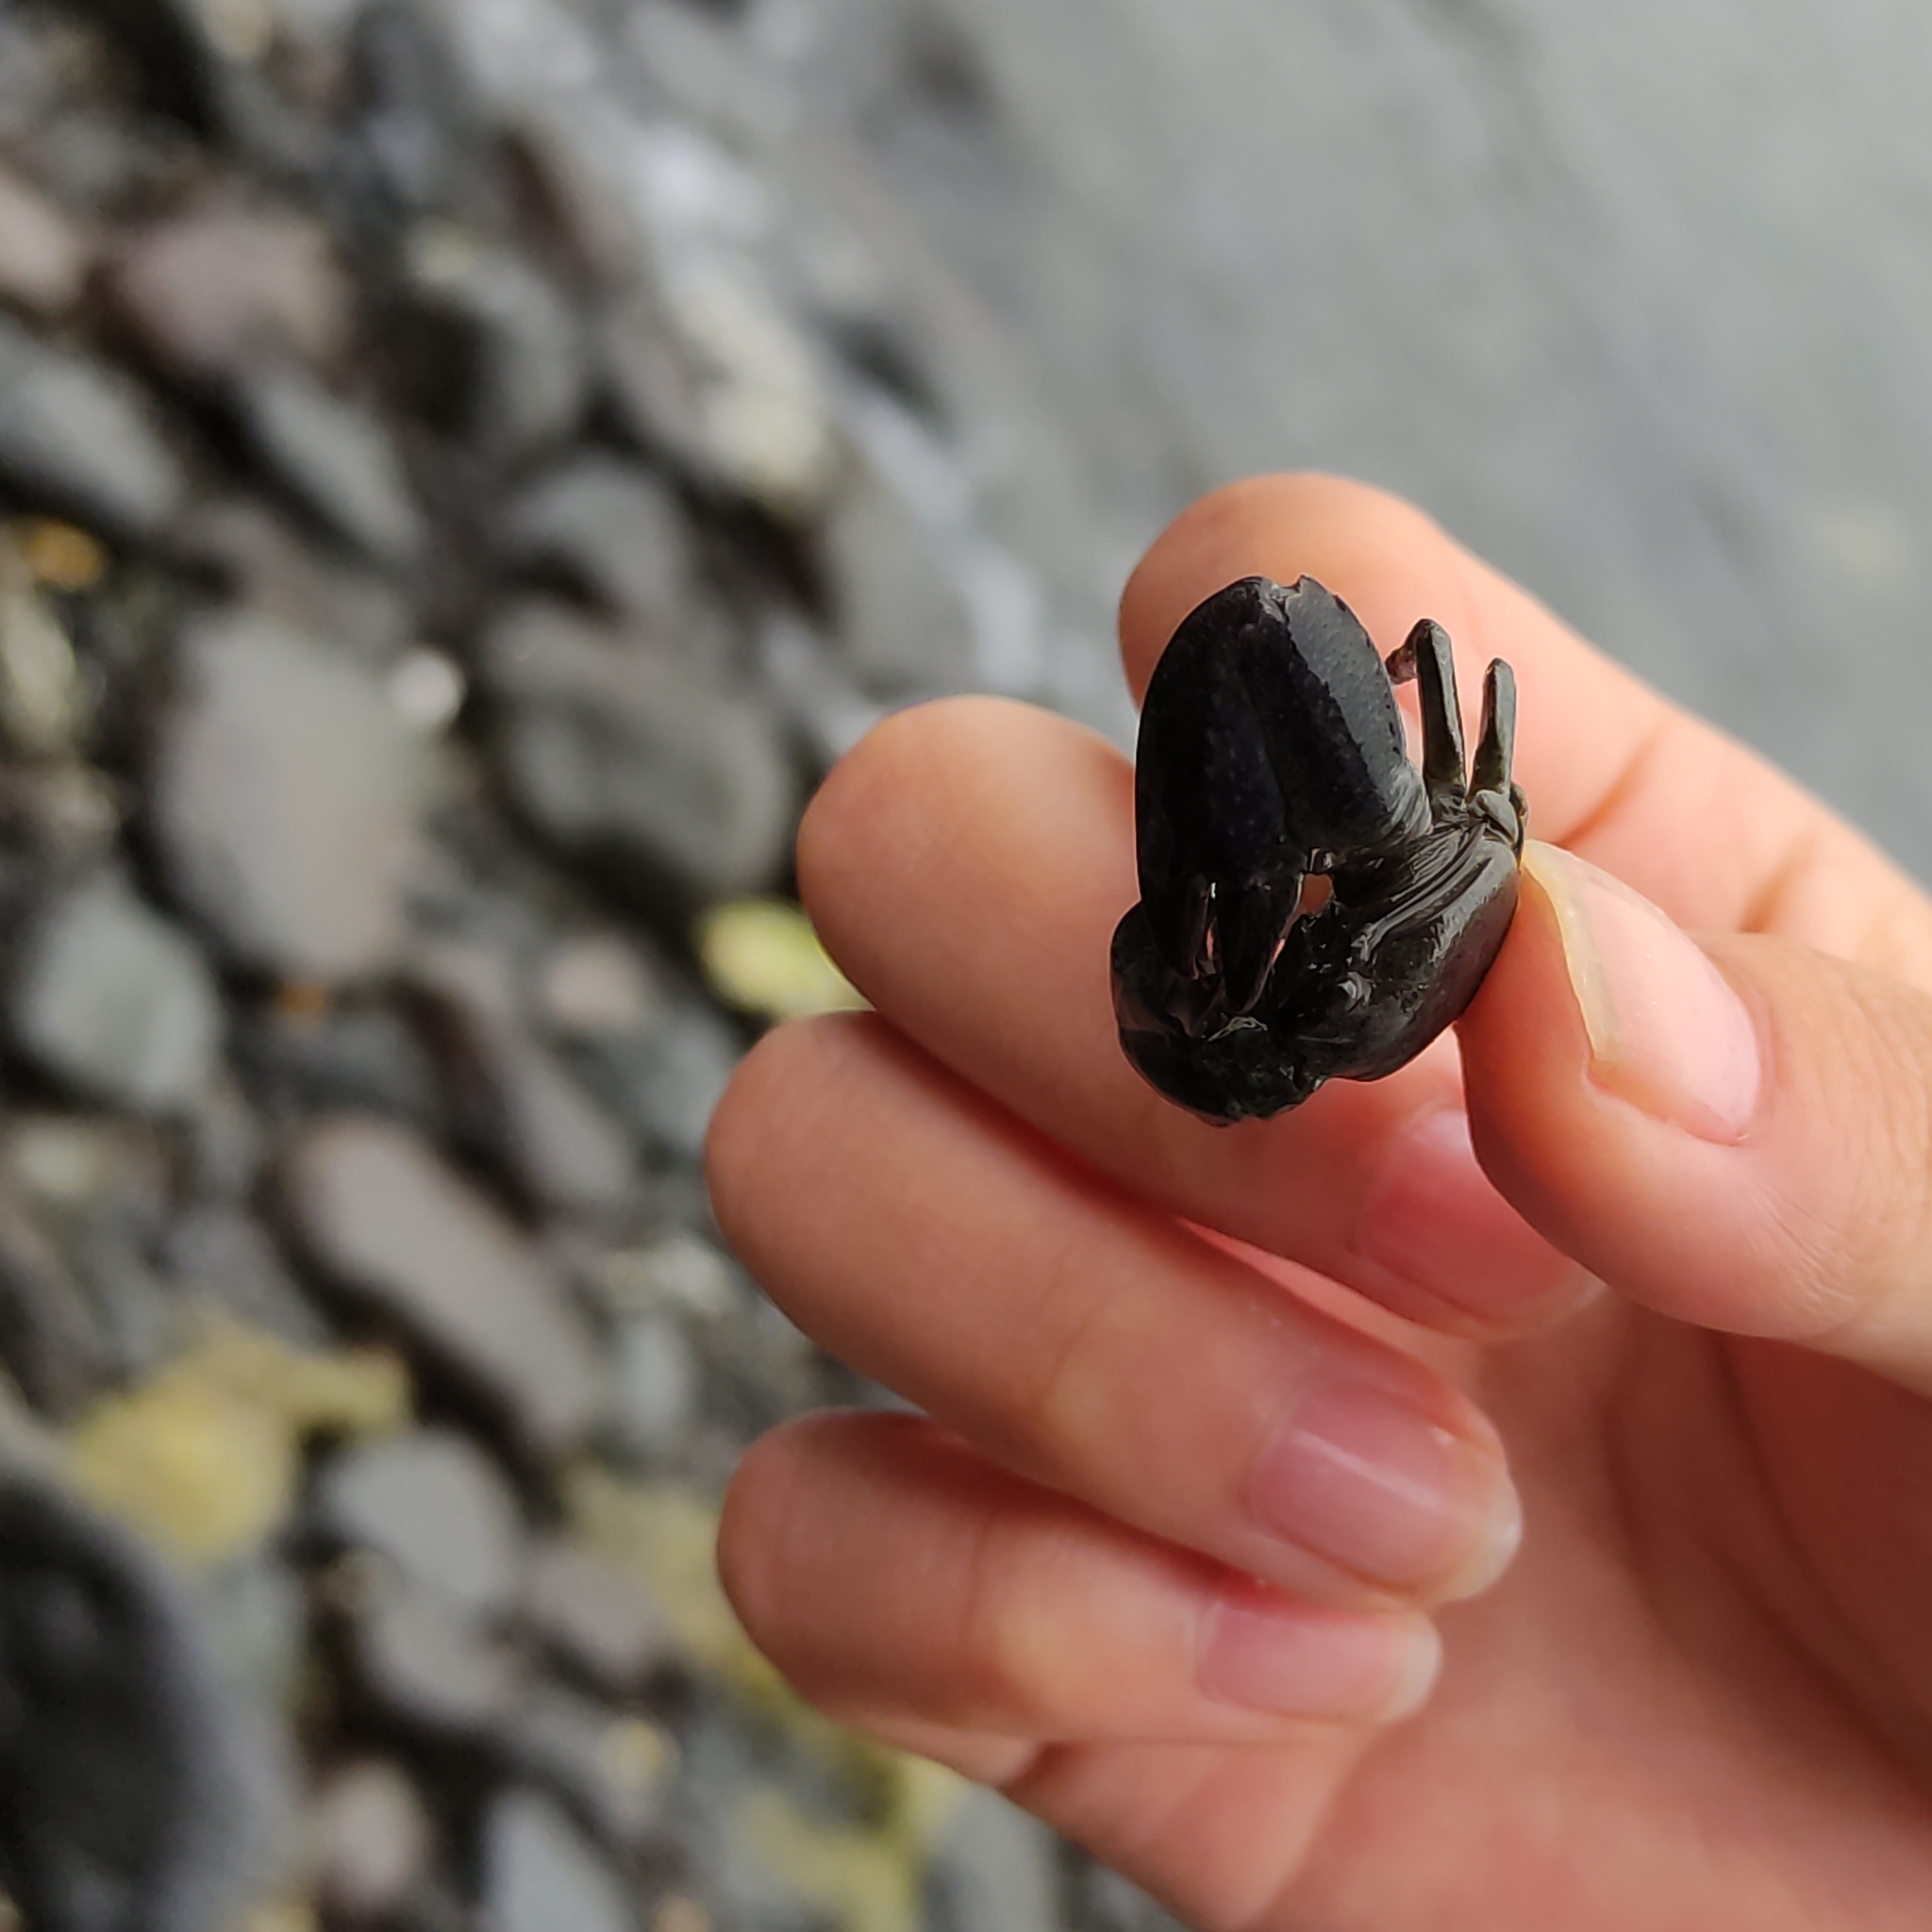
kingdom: Animalia
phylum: Arthropoda
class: Malacostraca
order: Decapoda
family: Porcellanidae
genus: Petrolisthes
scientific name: Petrolisthes elongatus
